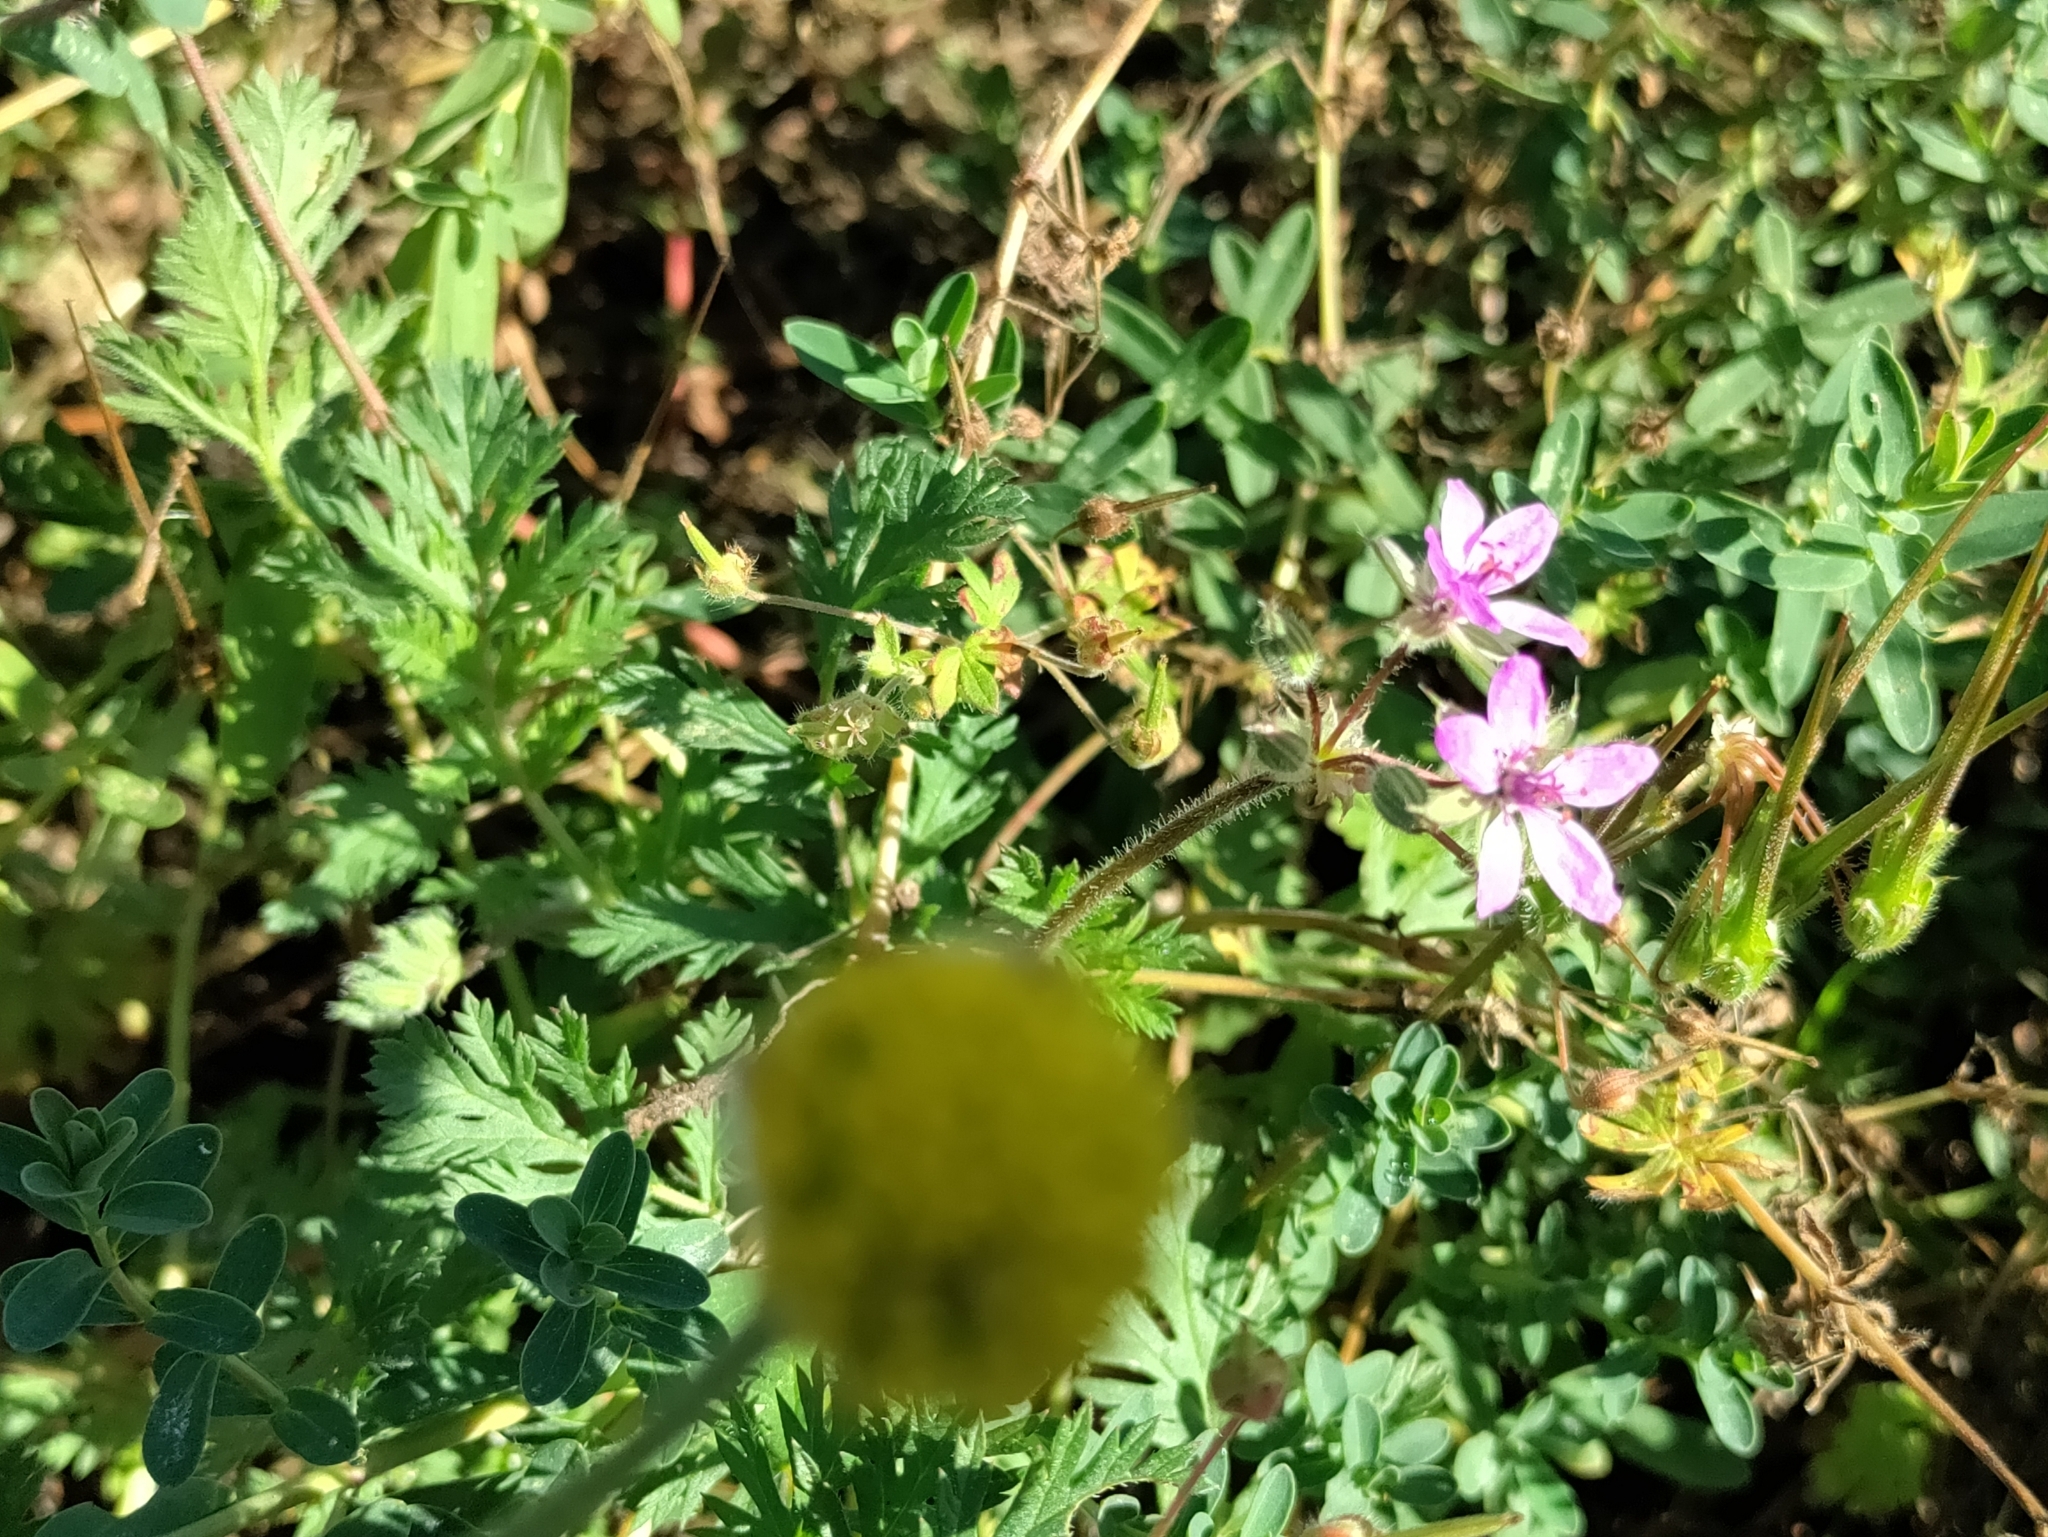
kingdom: Plantae
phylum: Tracheophyta
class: Magnoliopsida
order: Geraniales
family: Geraniaceae
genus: Erodium
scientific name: Erodium cicutarium
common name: Common stork's-bill
